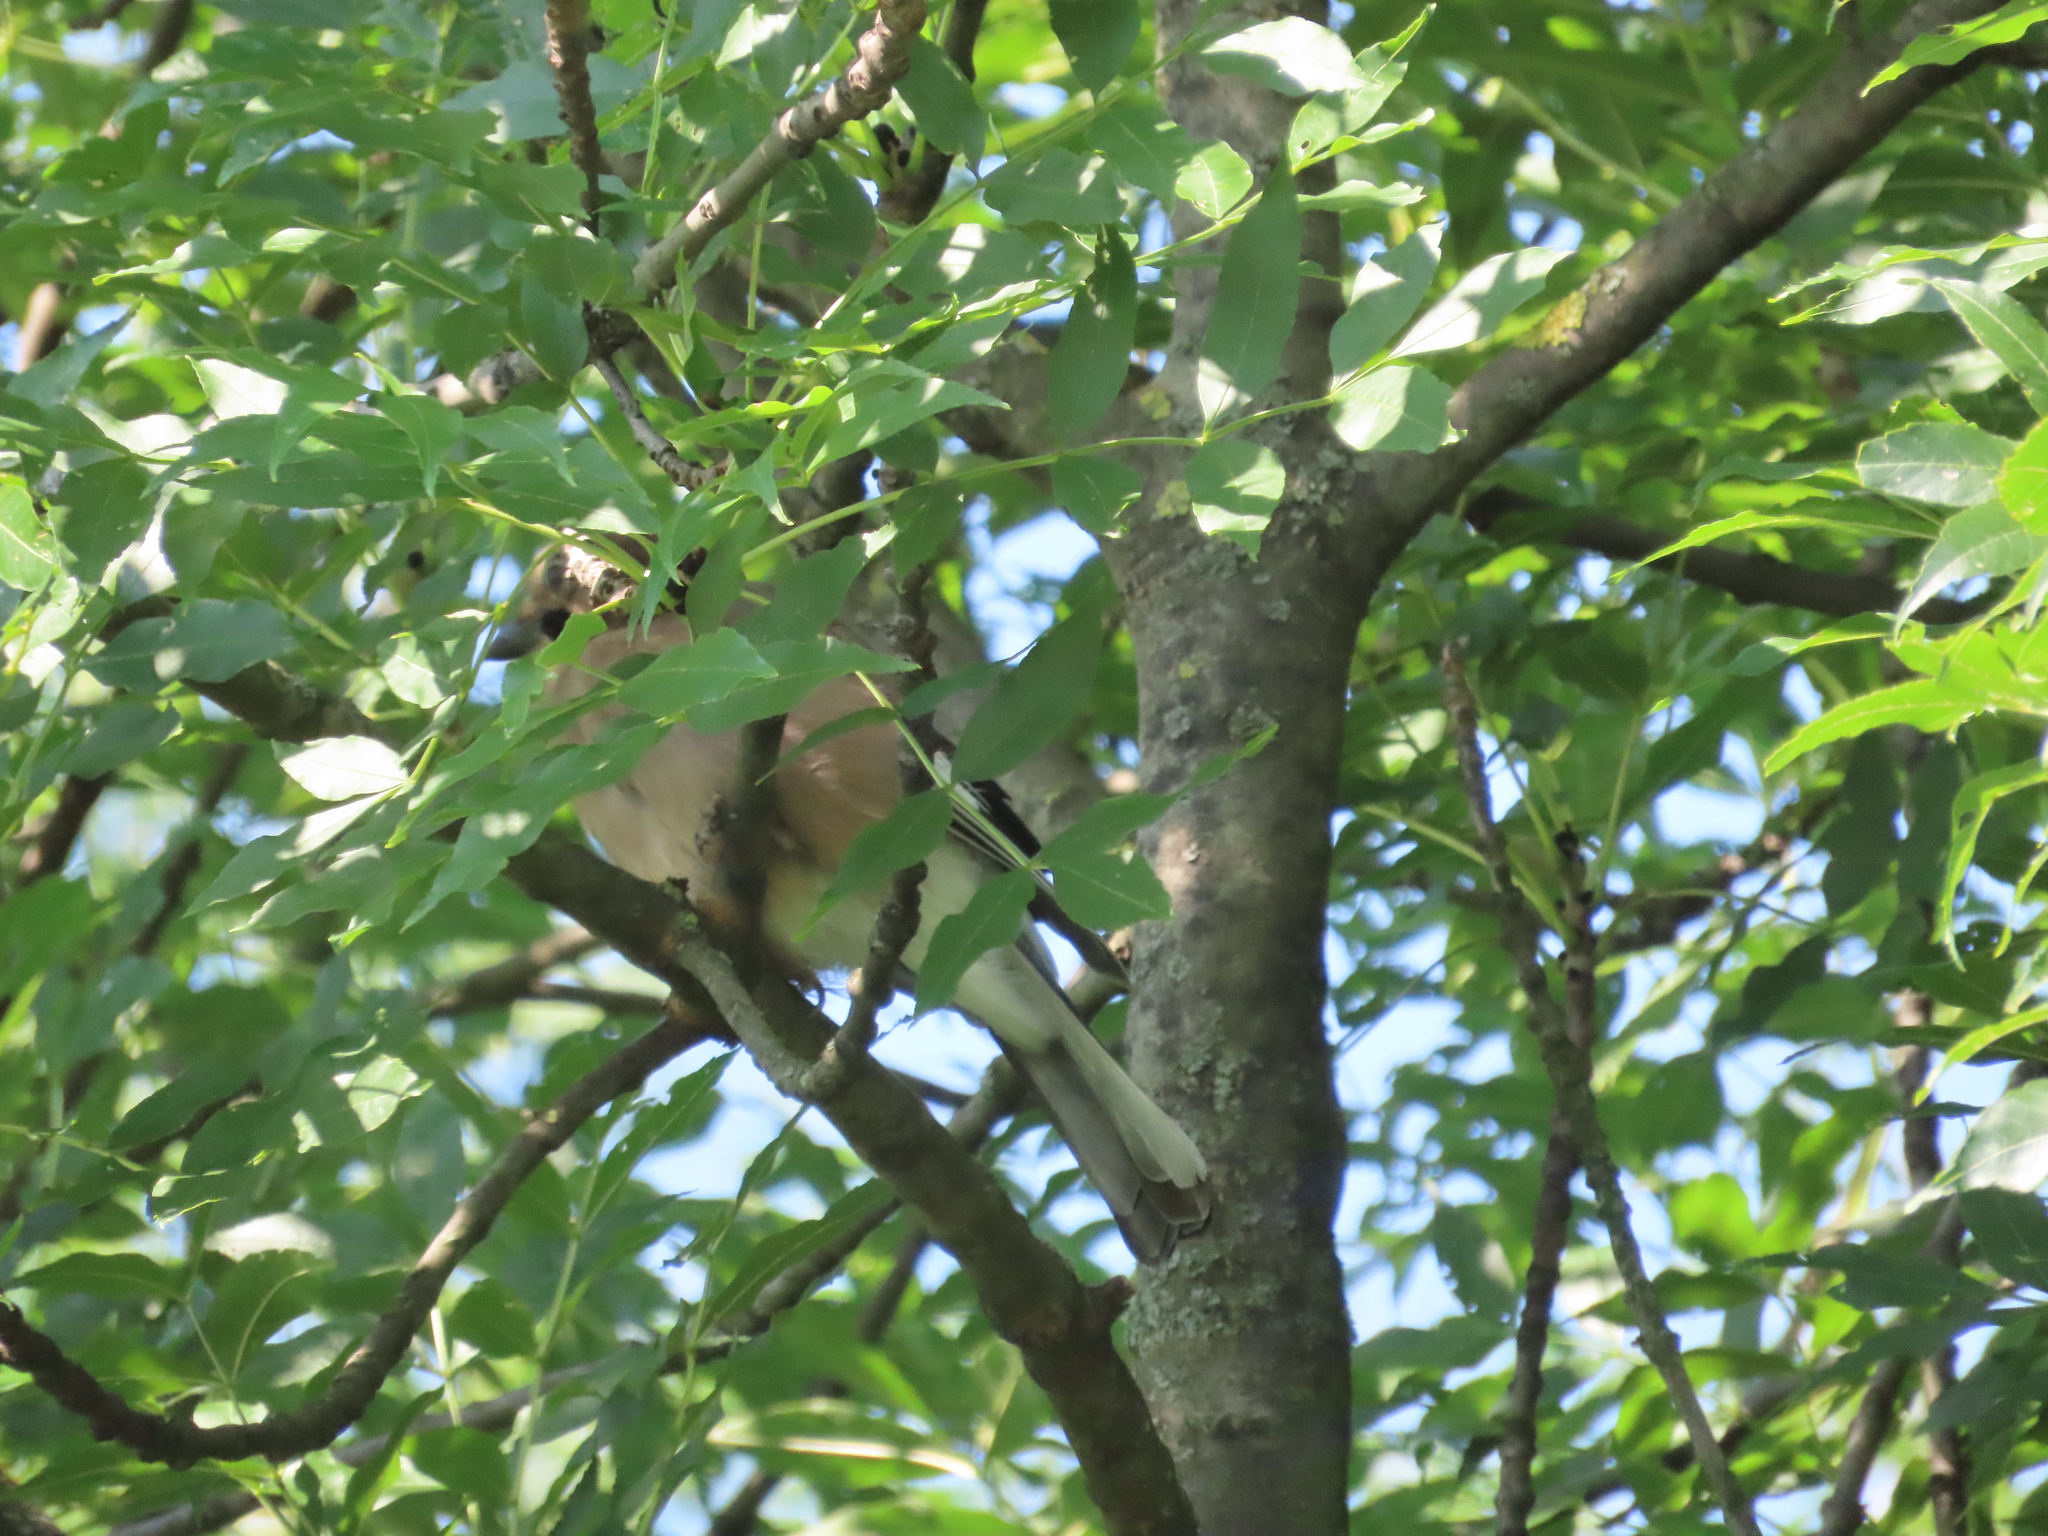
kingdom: Animalia
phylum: Chordata
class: Aves
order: Passeriformes
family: Fringillidae
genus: Fringilla
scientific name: Fringilla coelebs
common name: Common chaffinch
